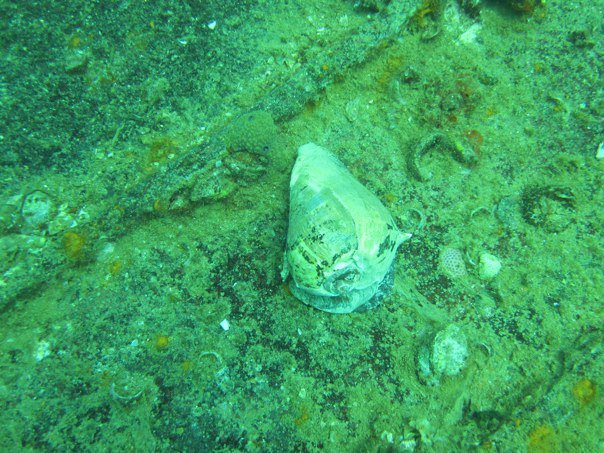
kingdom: Animalia
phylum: Mollusca
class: Gastropoda
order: Neogastropoda
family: Melongenidae
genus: Melongena
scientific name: Melongena melongena
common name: West indian crown conch
